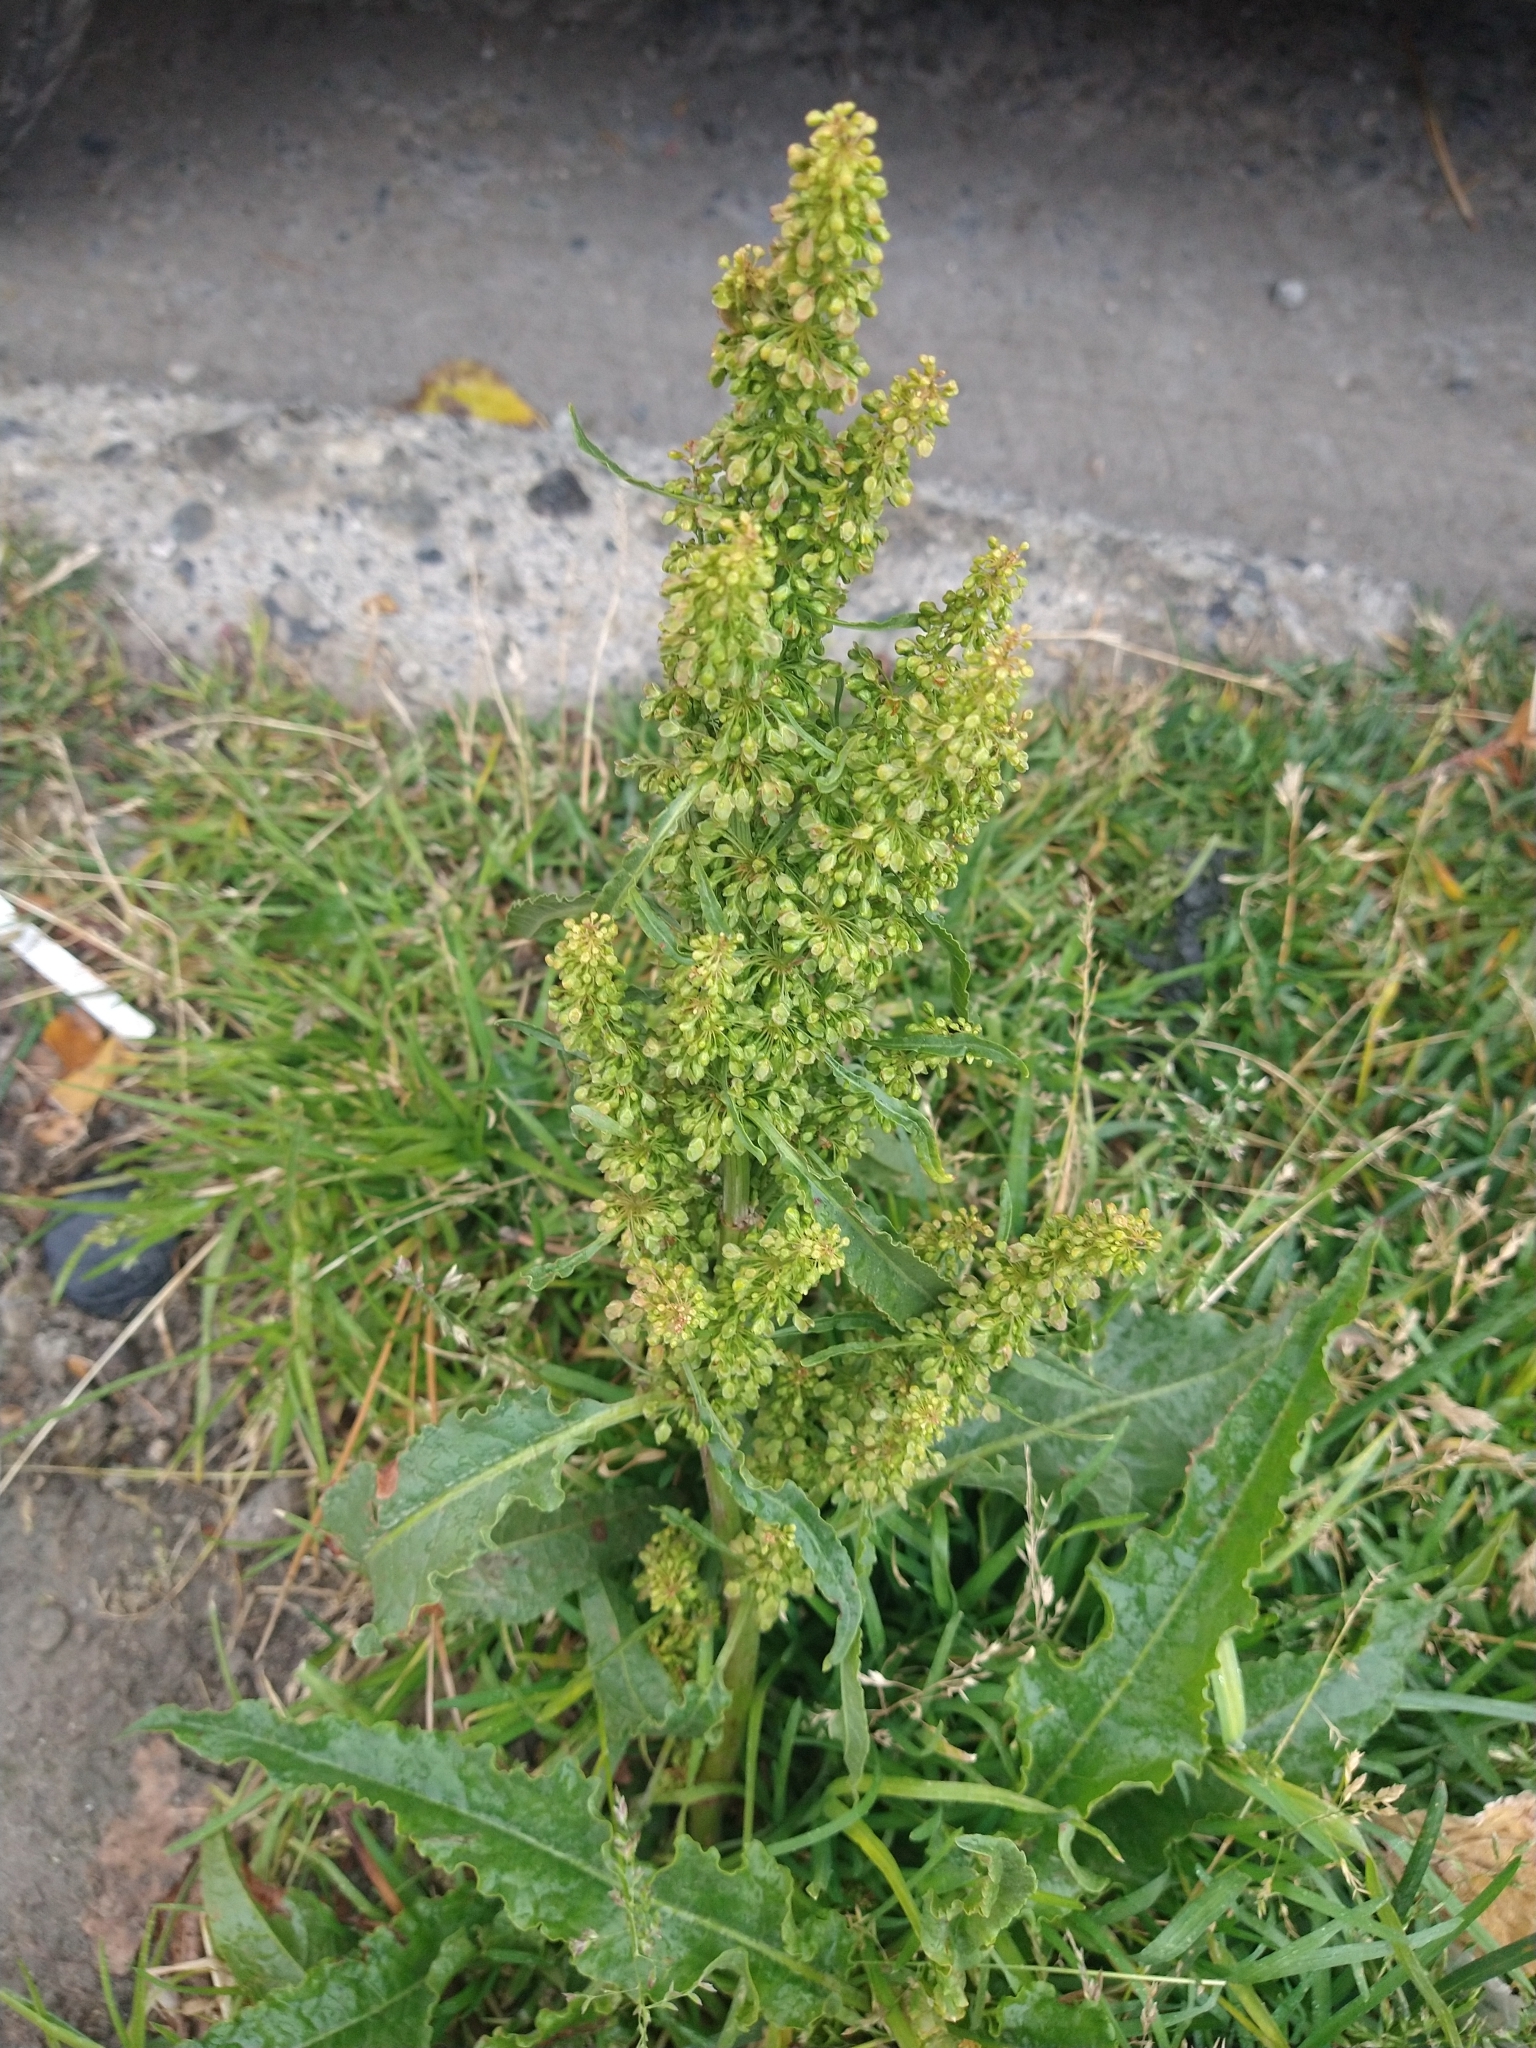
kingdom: Plantae
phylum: Tracheophyta
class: Magnoliopsida
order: Caryophyllales
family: Polygonaceae
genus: Rumex
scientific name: Rumex crispus
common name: Curled dock
